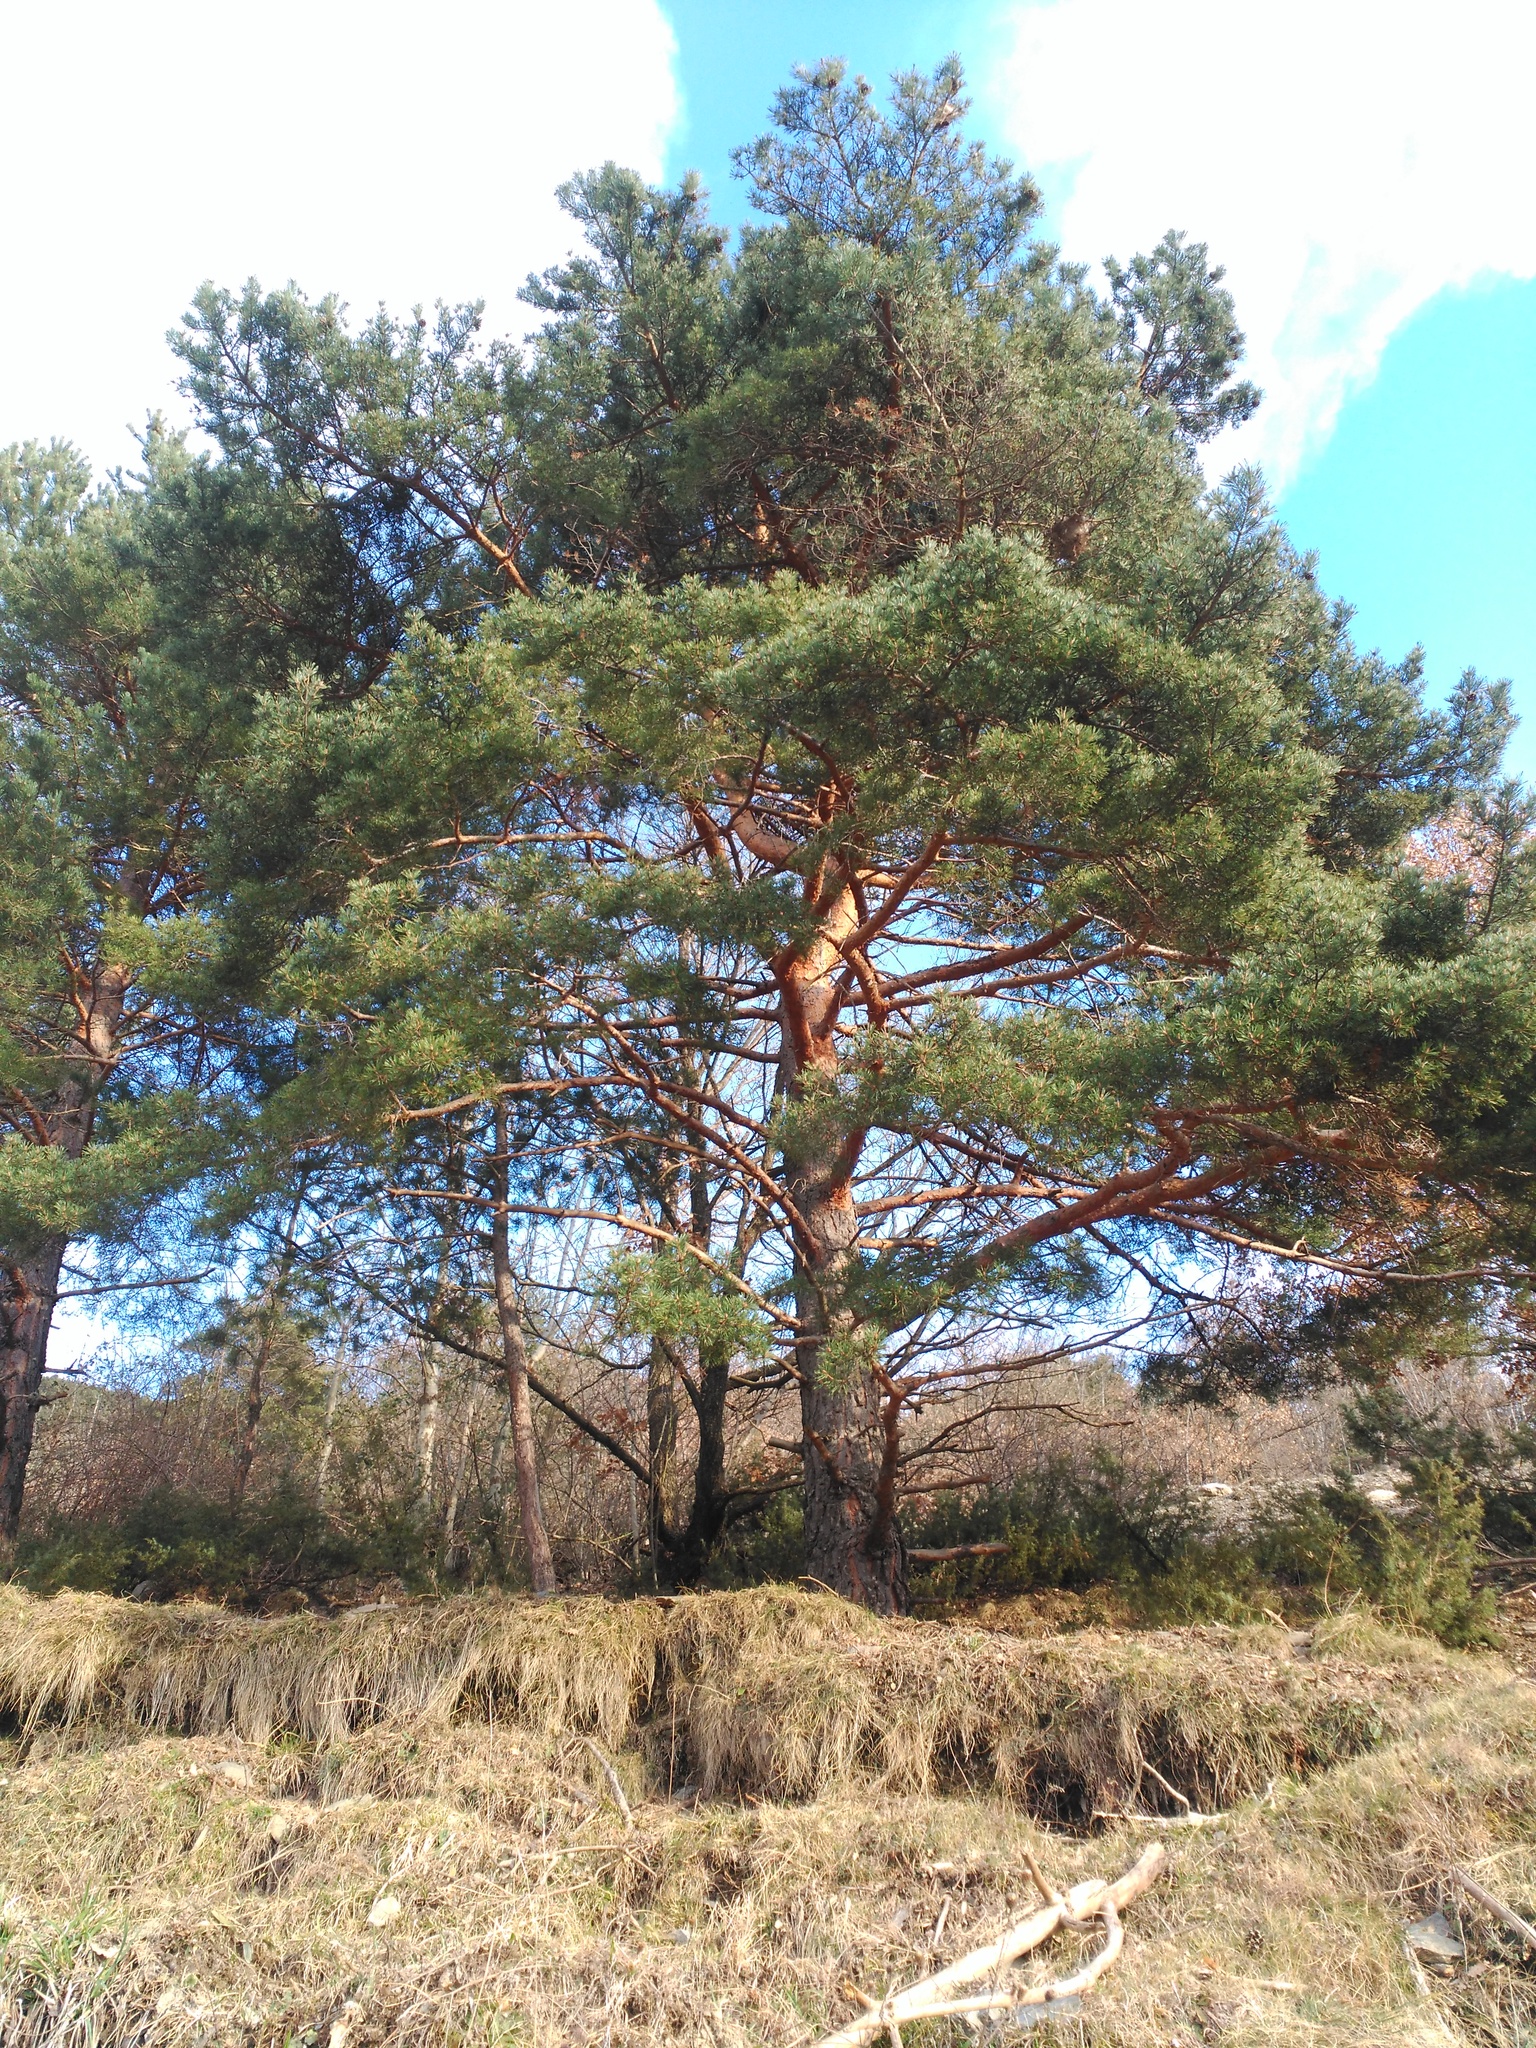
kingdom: Plantae
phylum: Tracheophyta
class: Pinopsida
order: Pinales
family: Pinaceae
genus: Pinus
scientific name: Pinus sylvestris
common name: Scots pine
